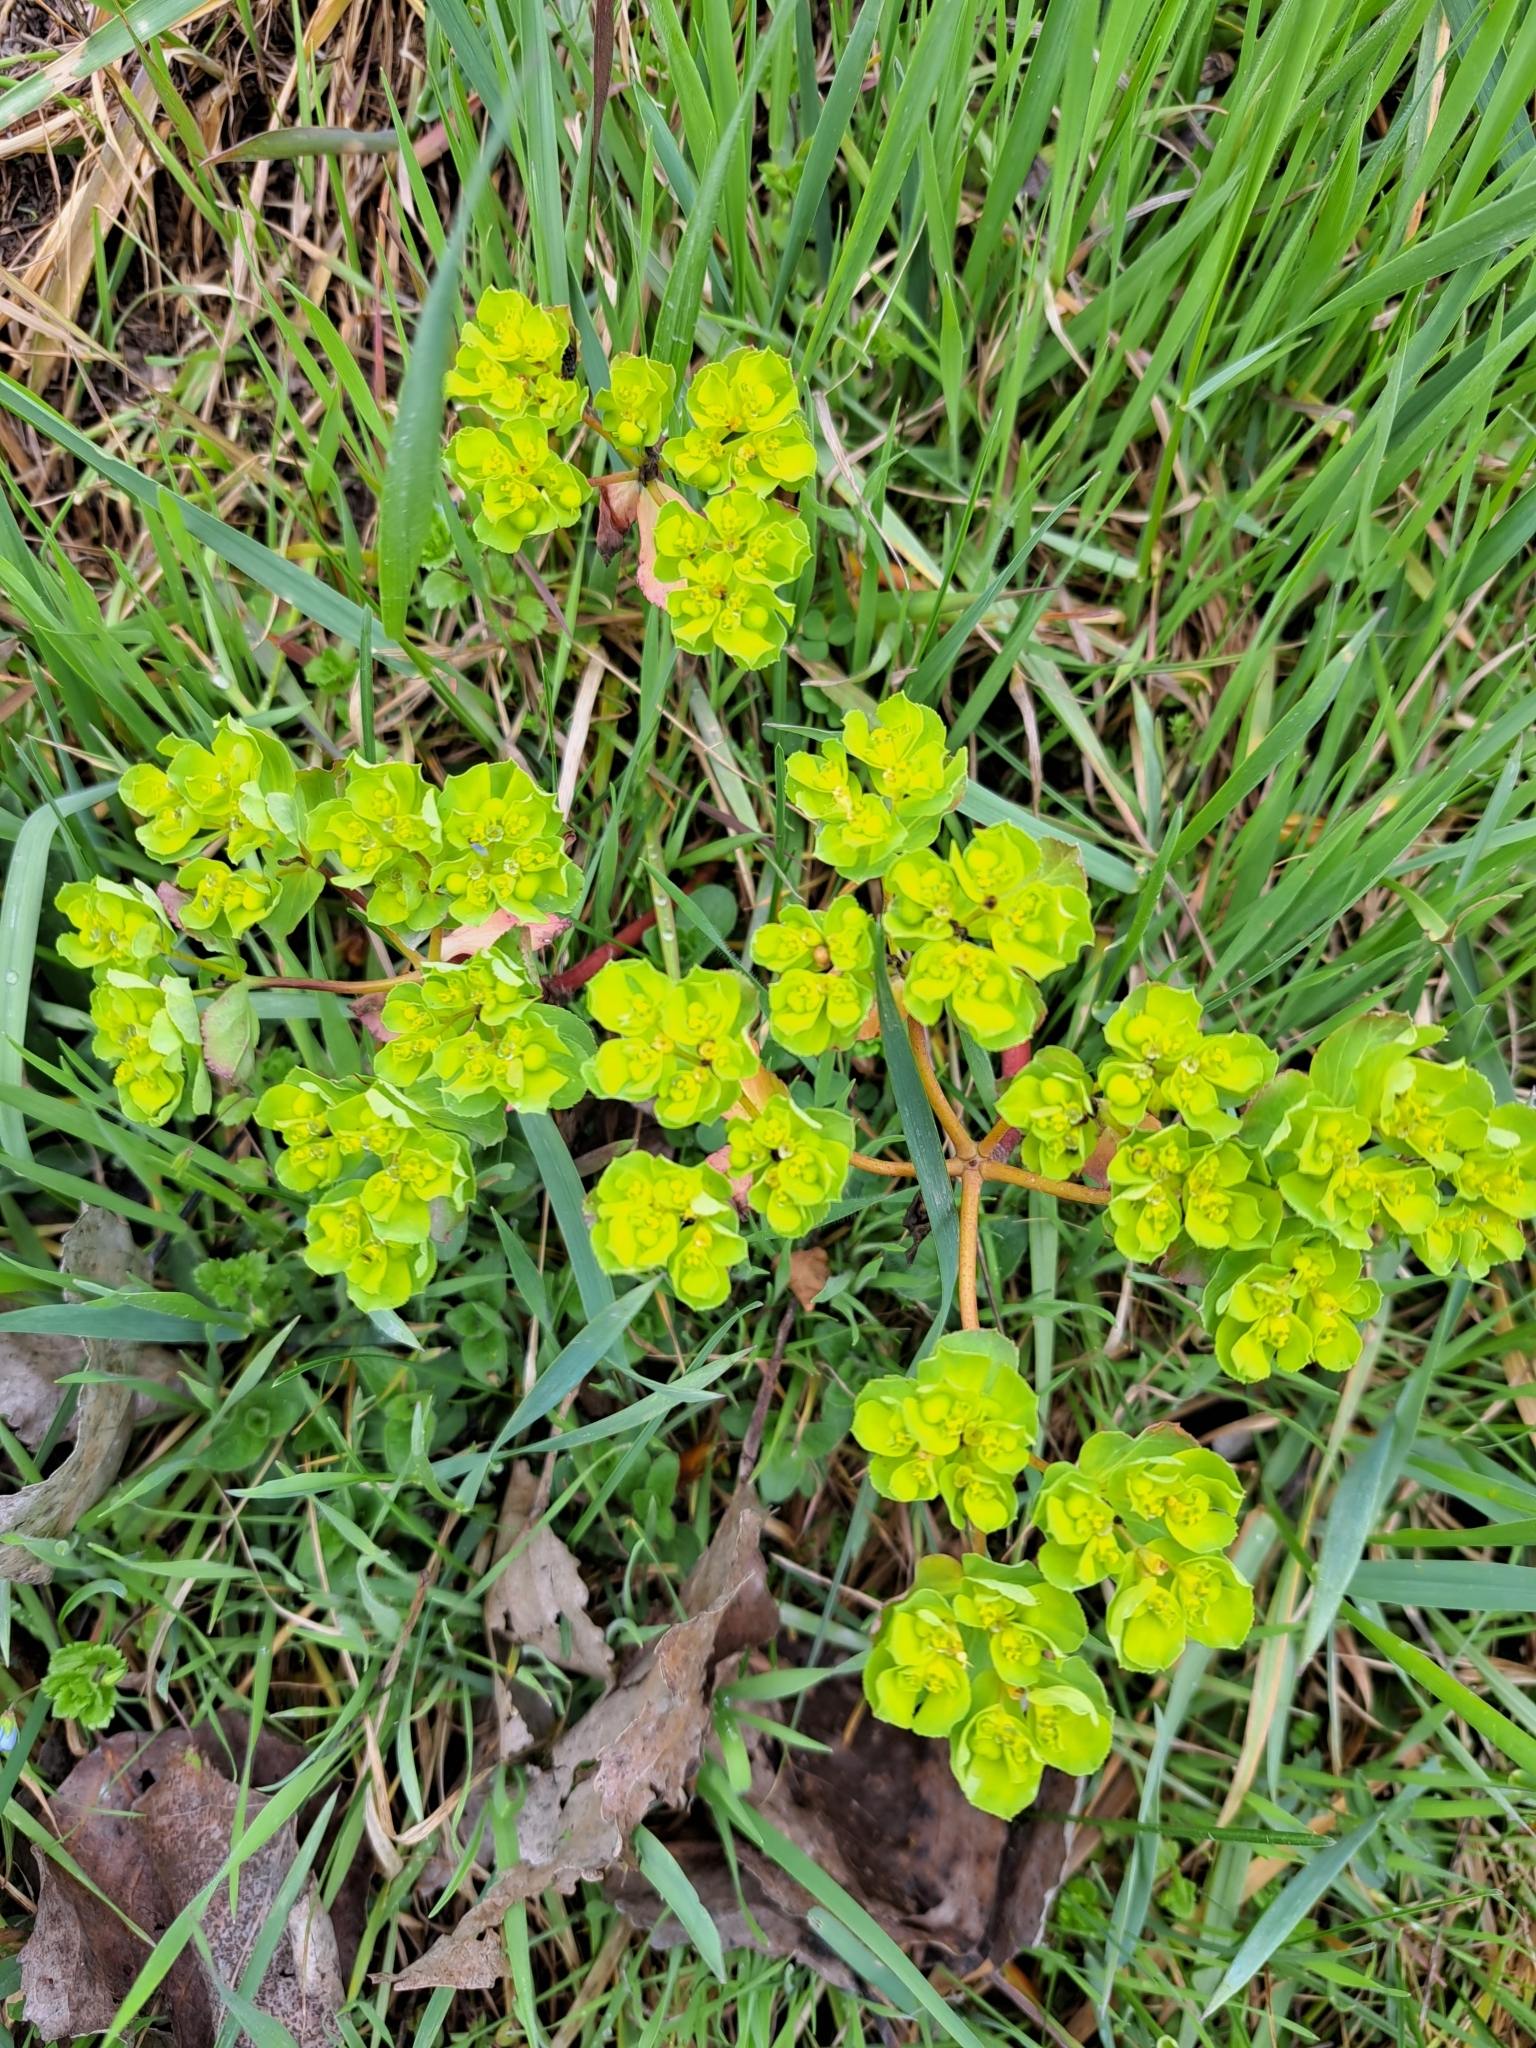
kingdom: Plantae
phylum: Tracheophyta
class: Magnoliopsida
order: Malpighiales
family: Euphorbiaceae
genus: Euphorbia
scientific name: Euphorbia helioscopia
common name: Sun spurge
